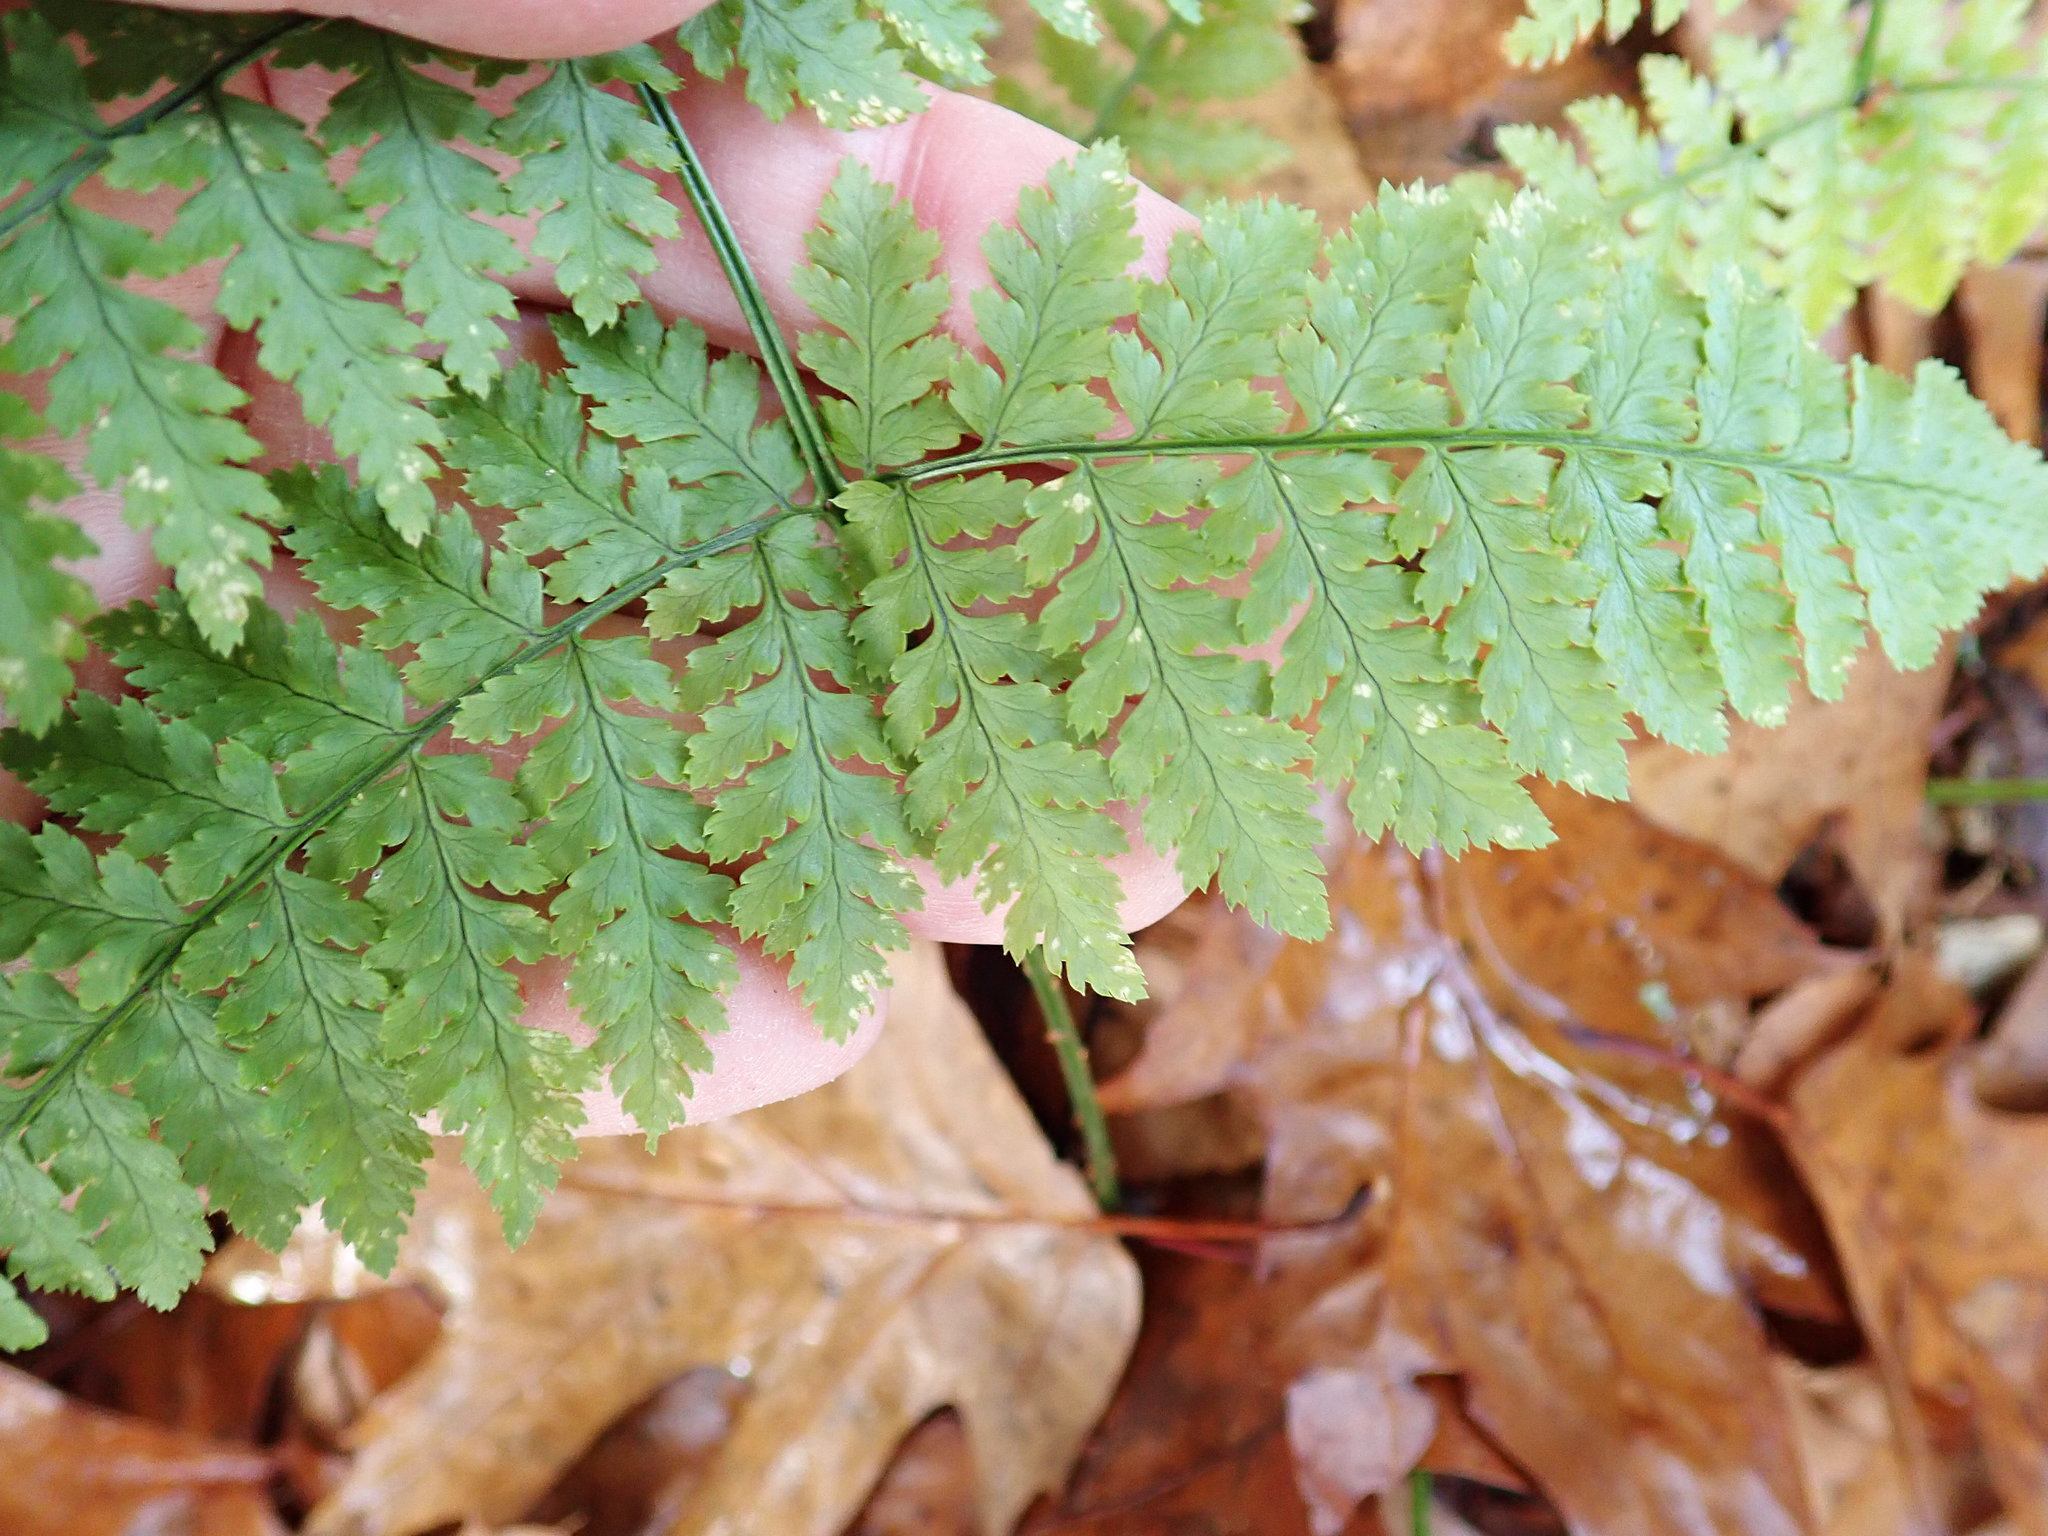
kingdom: Plantae
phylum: Tracheophyta
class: Polypodiopsida
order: Polypodiales
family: Dryopteridaceae
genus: Dryopteris
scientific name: Dryopteris intermedia
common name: Evergreen wood fern
